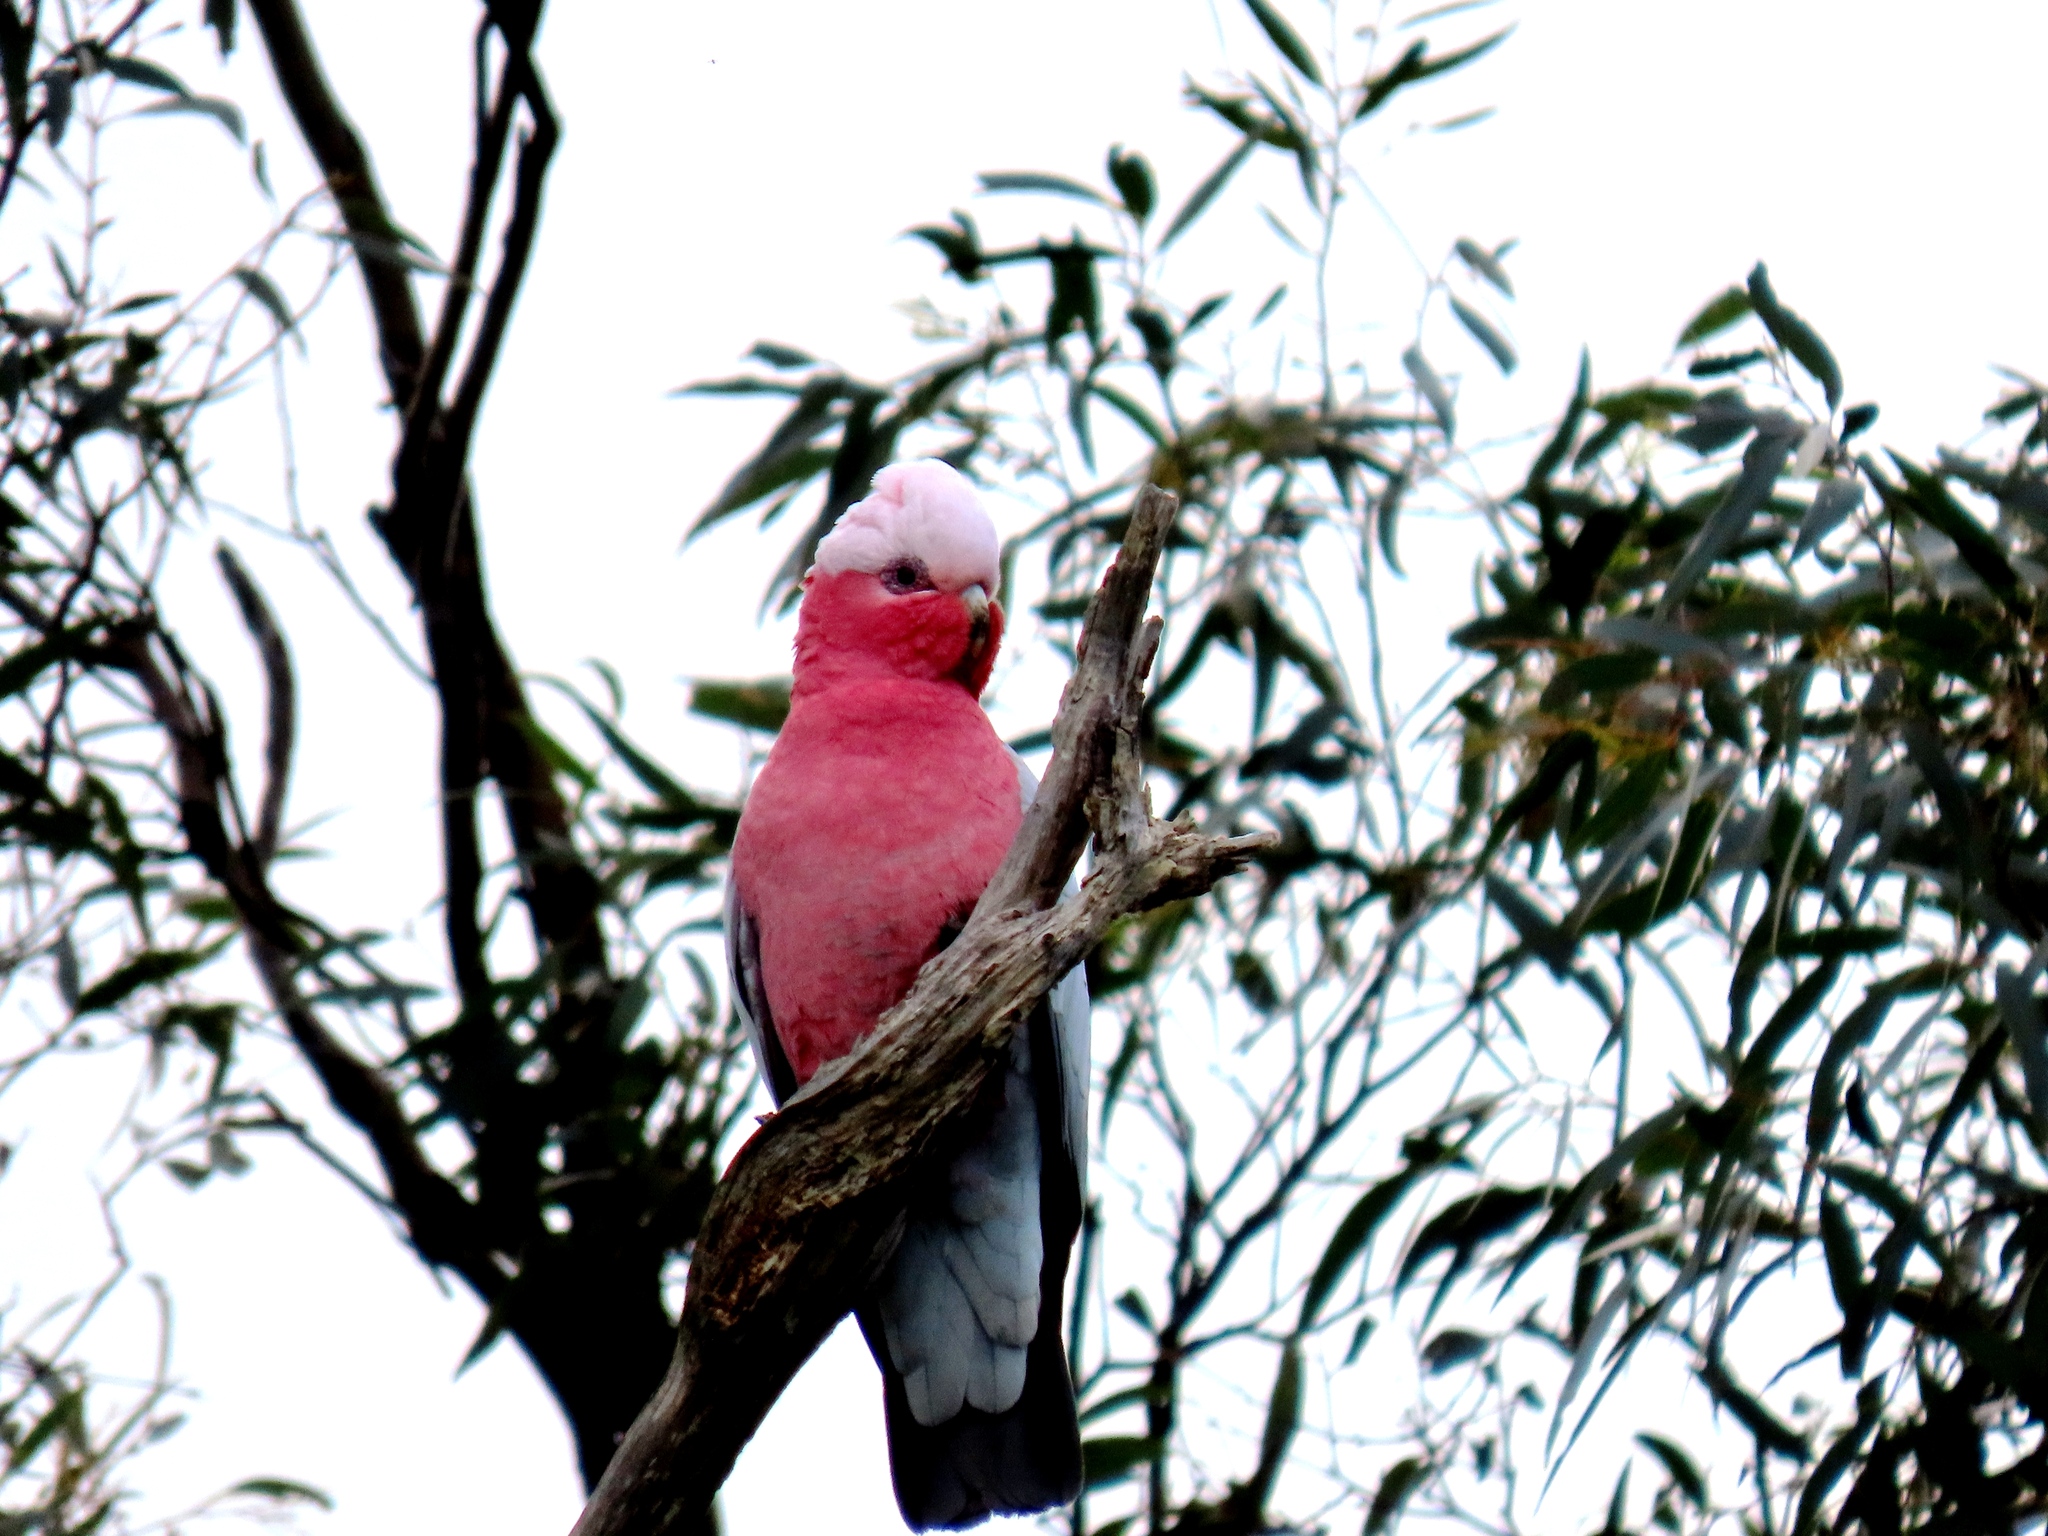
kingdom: Animalia
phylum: Chordata
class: Aves
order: Psittaciformes
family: Psittacidae
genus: Eolophus
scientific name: Eolophus roseicapilla
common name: Galah
